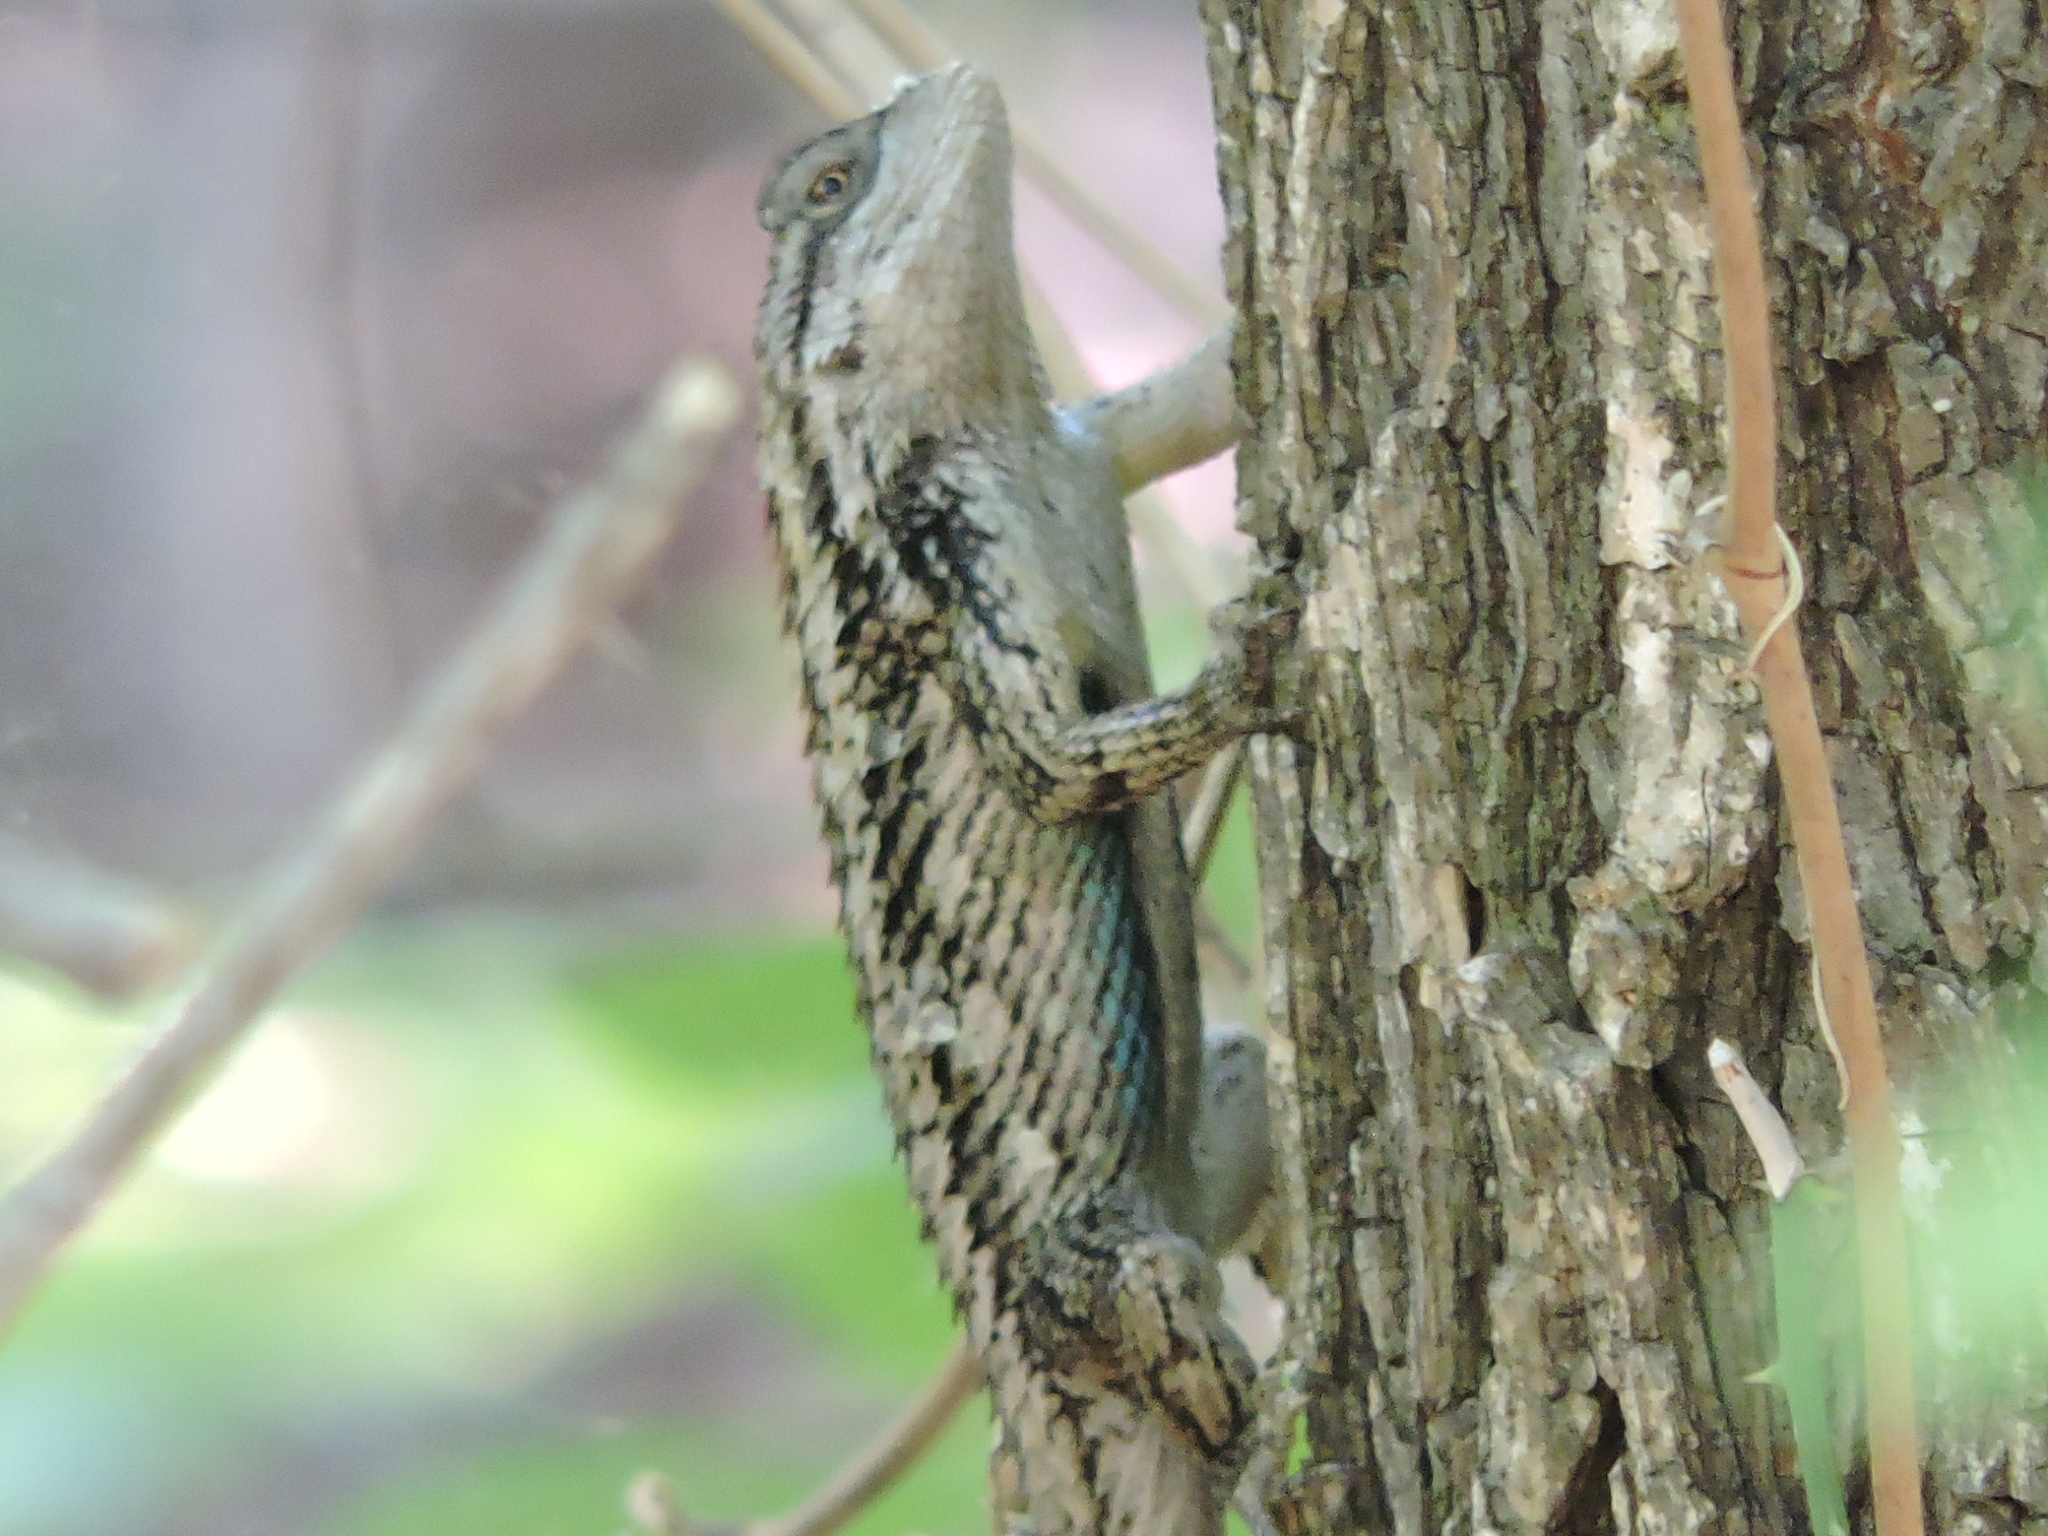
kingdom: Animalia
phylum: Chordata
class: Squamata
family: Phrynosomatidae
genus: Sceloporus
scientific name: Sceloporus olivaceus
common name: Texas spiny lizard
